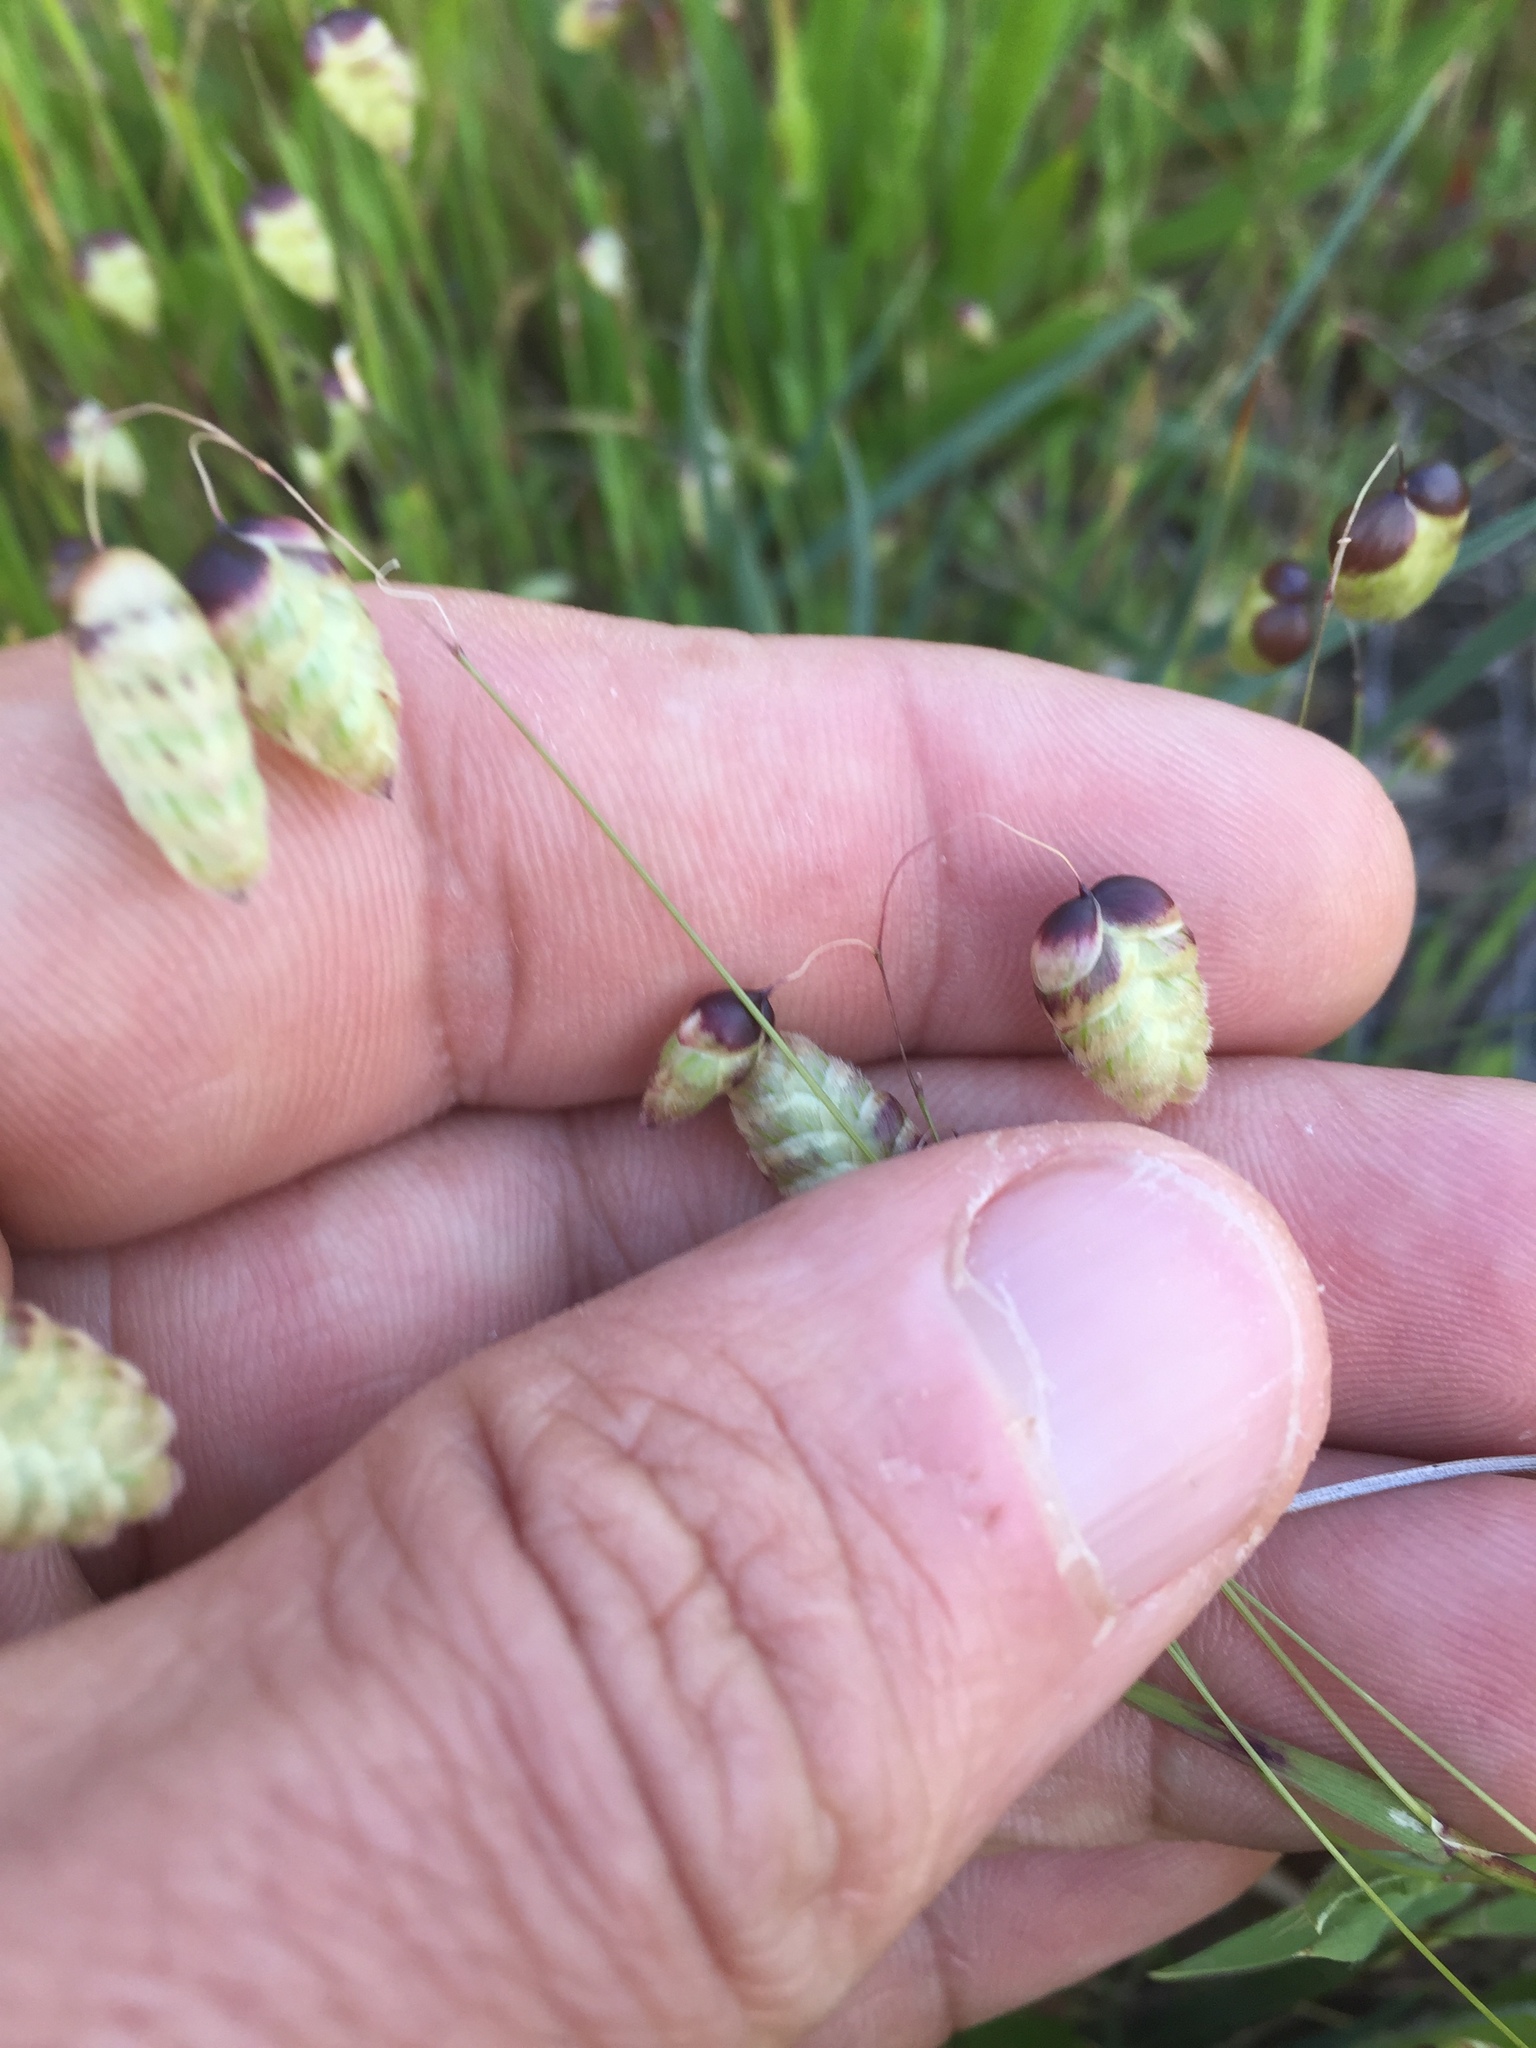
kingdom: Plantae
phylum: Tracheophyta
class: Liliopsida
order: Poales
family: Poaceae
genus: Briza
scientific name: Briza maxima
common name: Big quakinggrass
